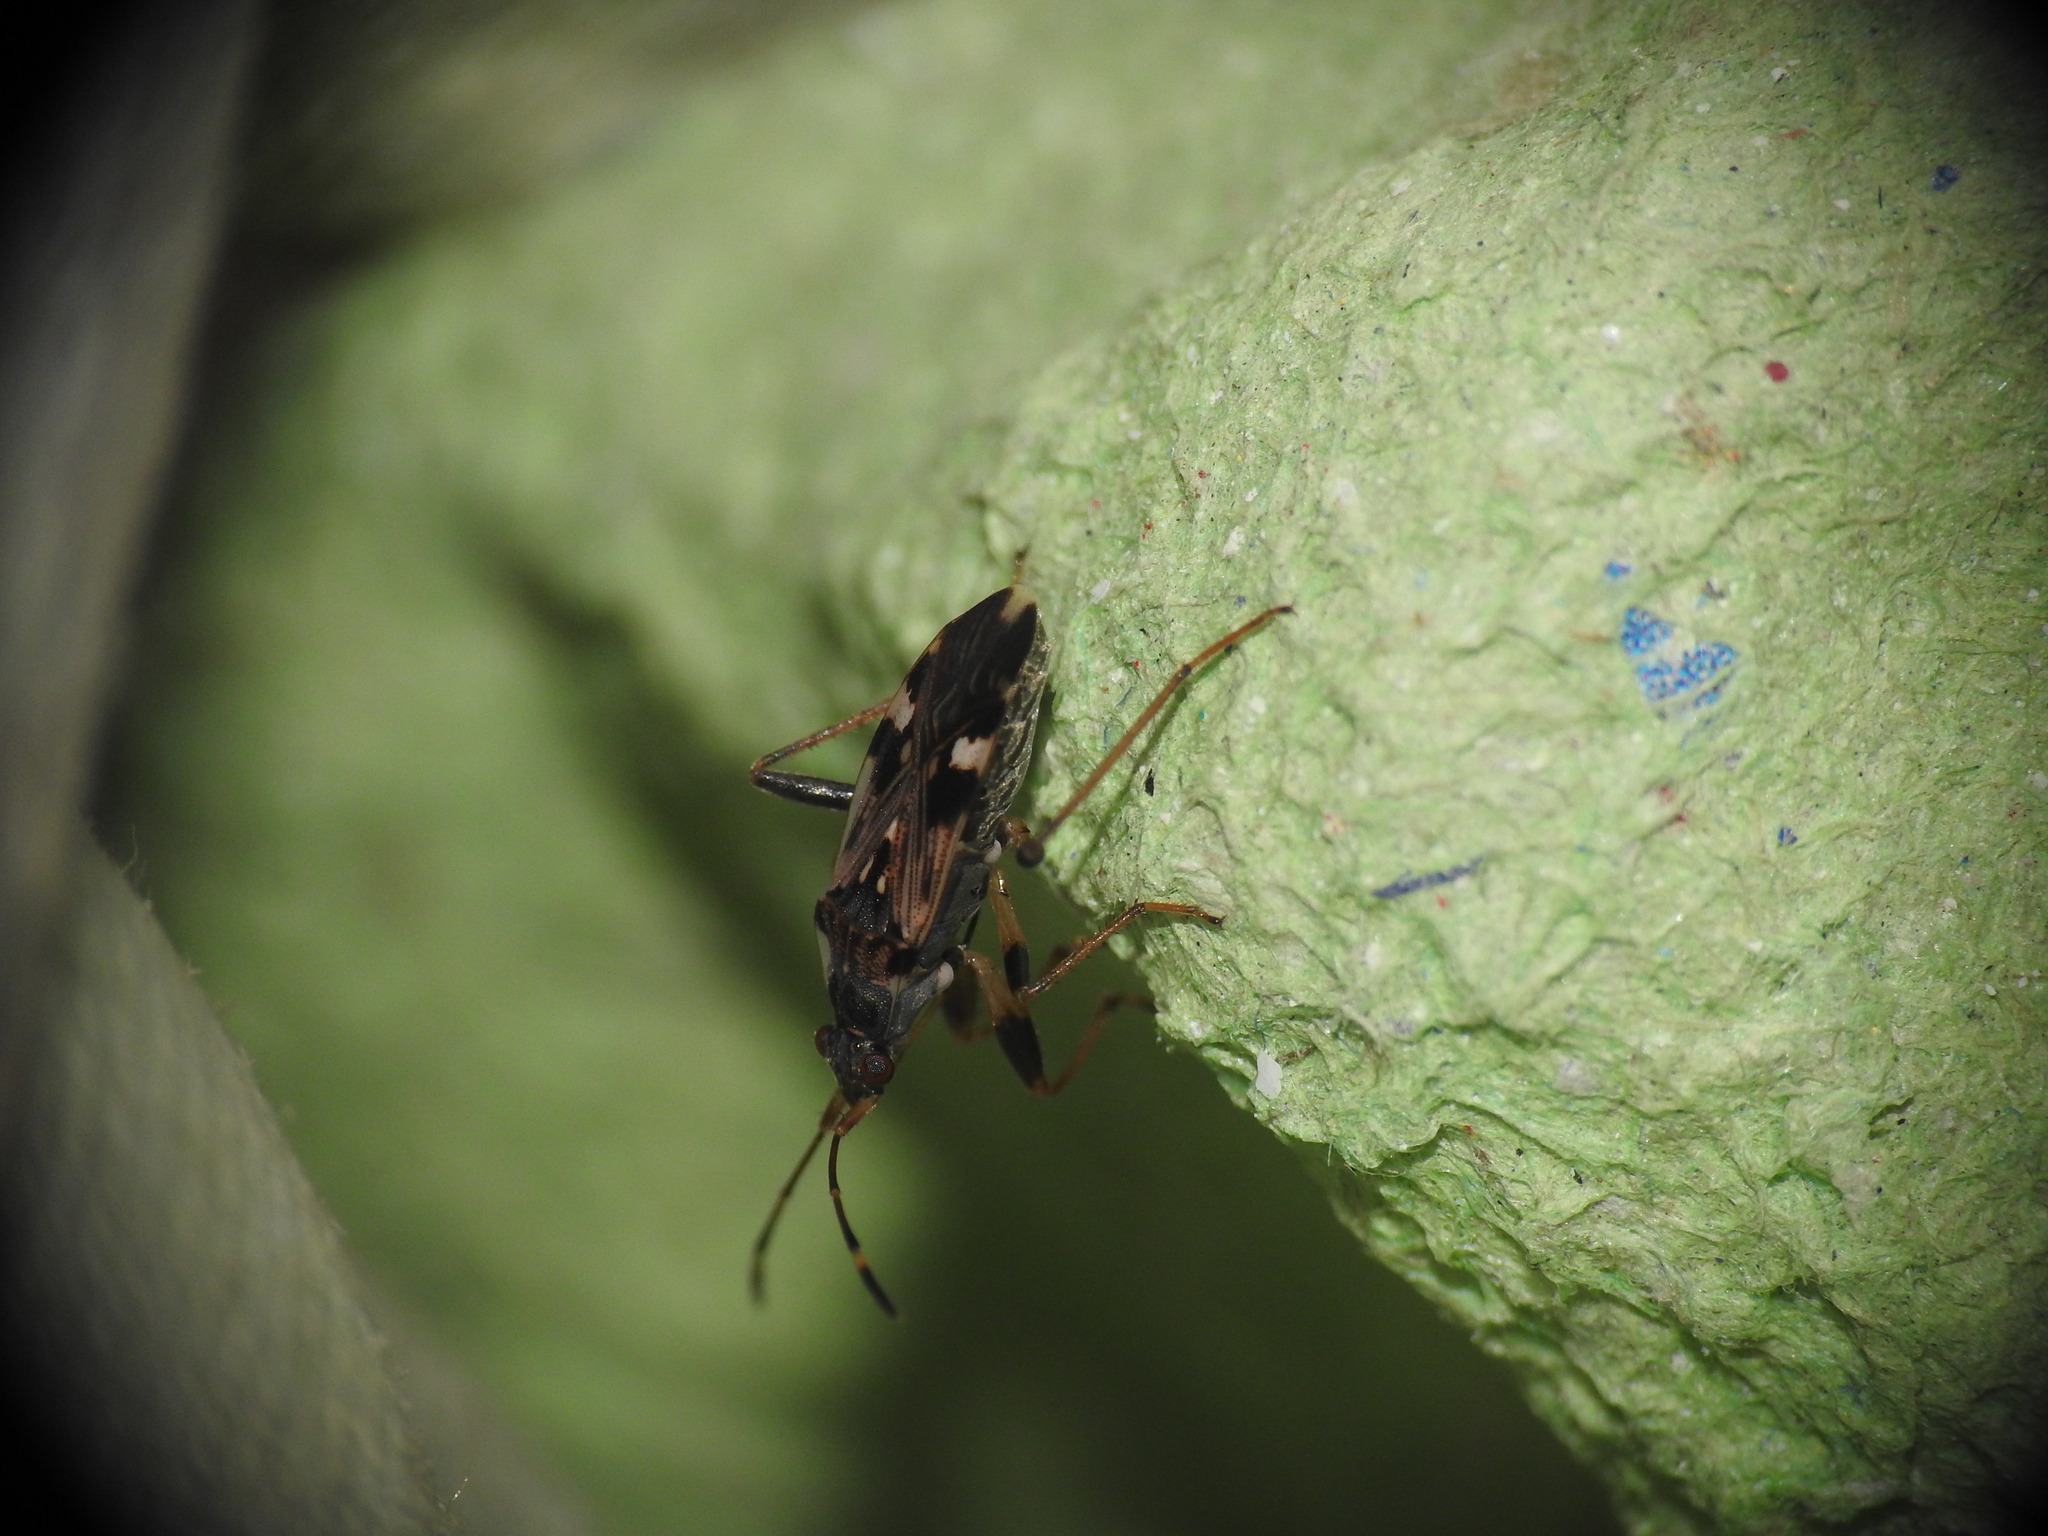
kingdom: Animalia
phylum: Arthropoda
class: Insecta
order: Hemiptera
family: Rhyparochromidae
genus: Beosus
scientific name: Beosus maritimus
